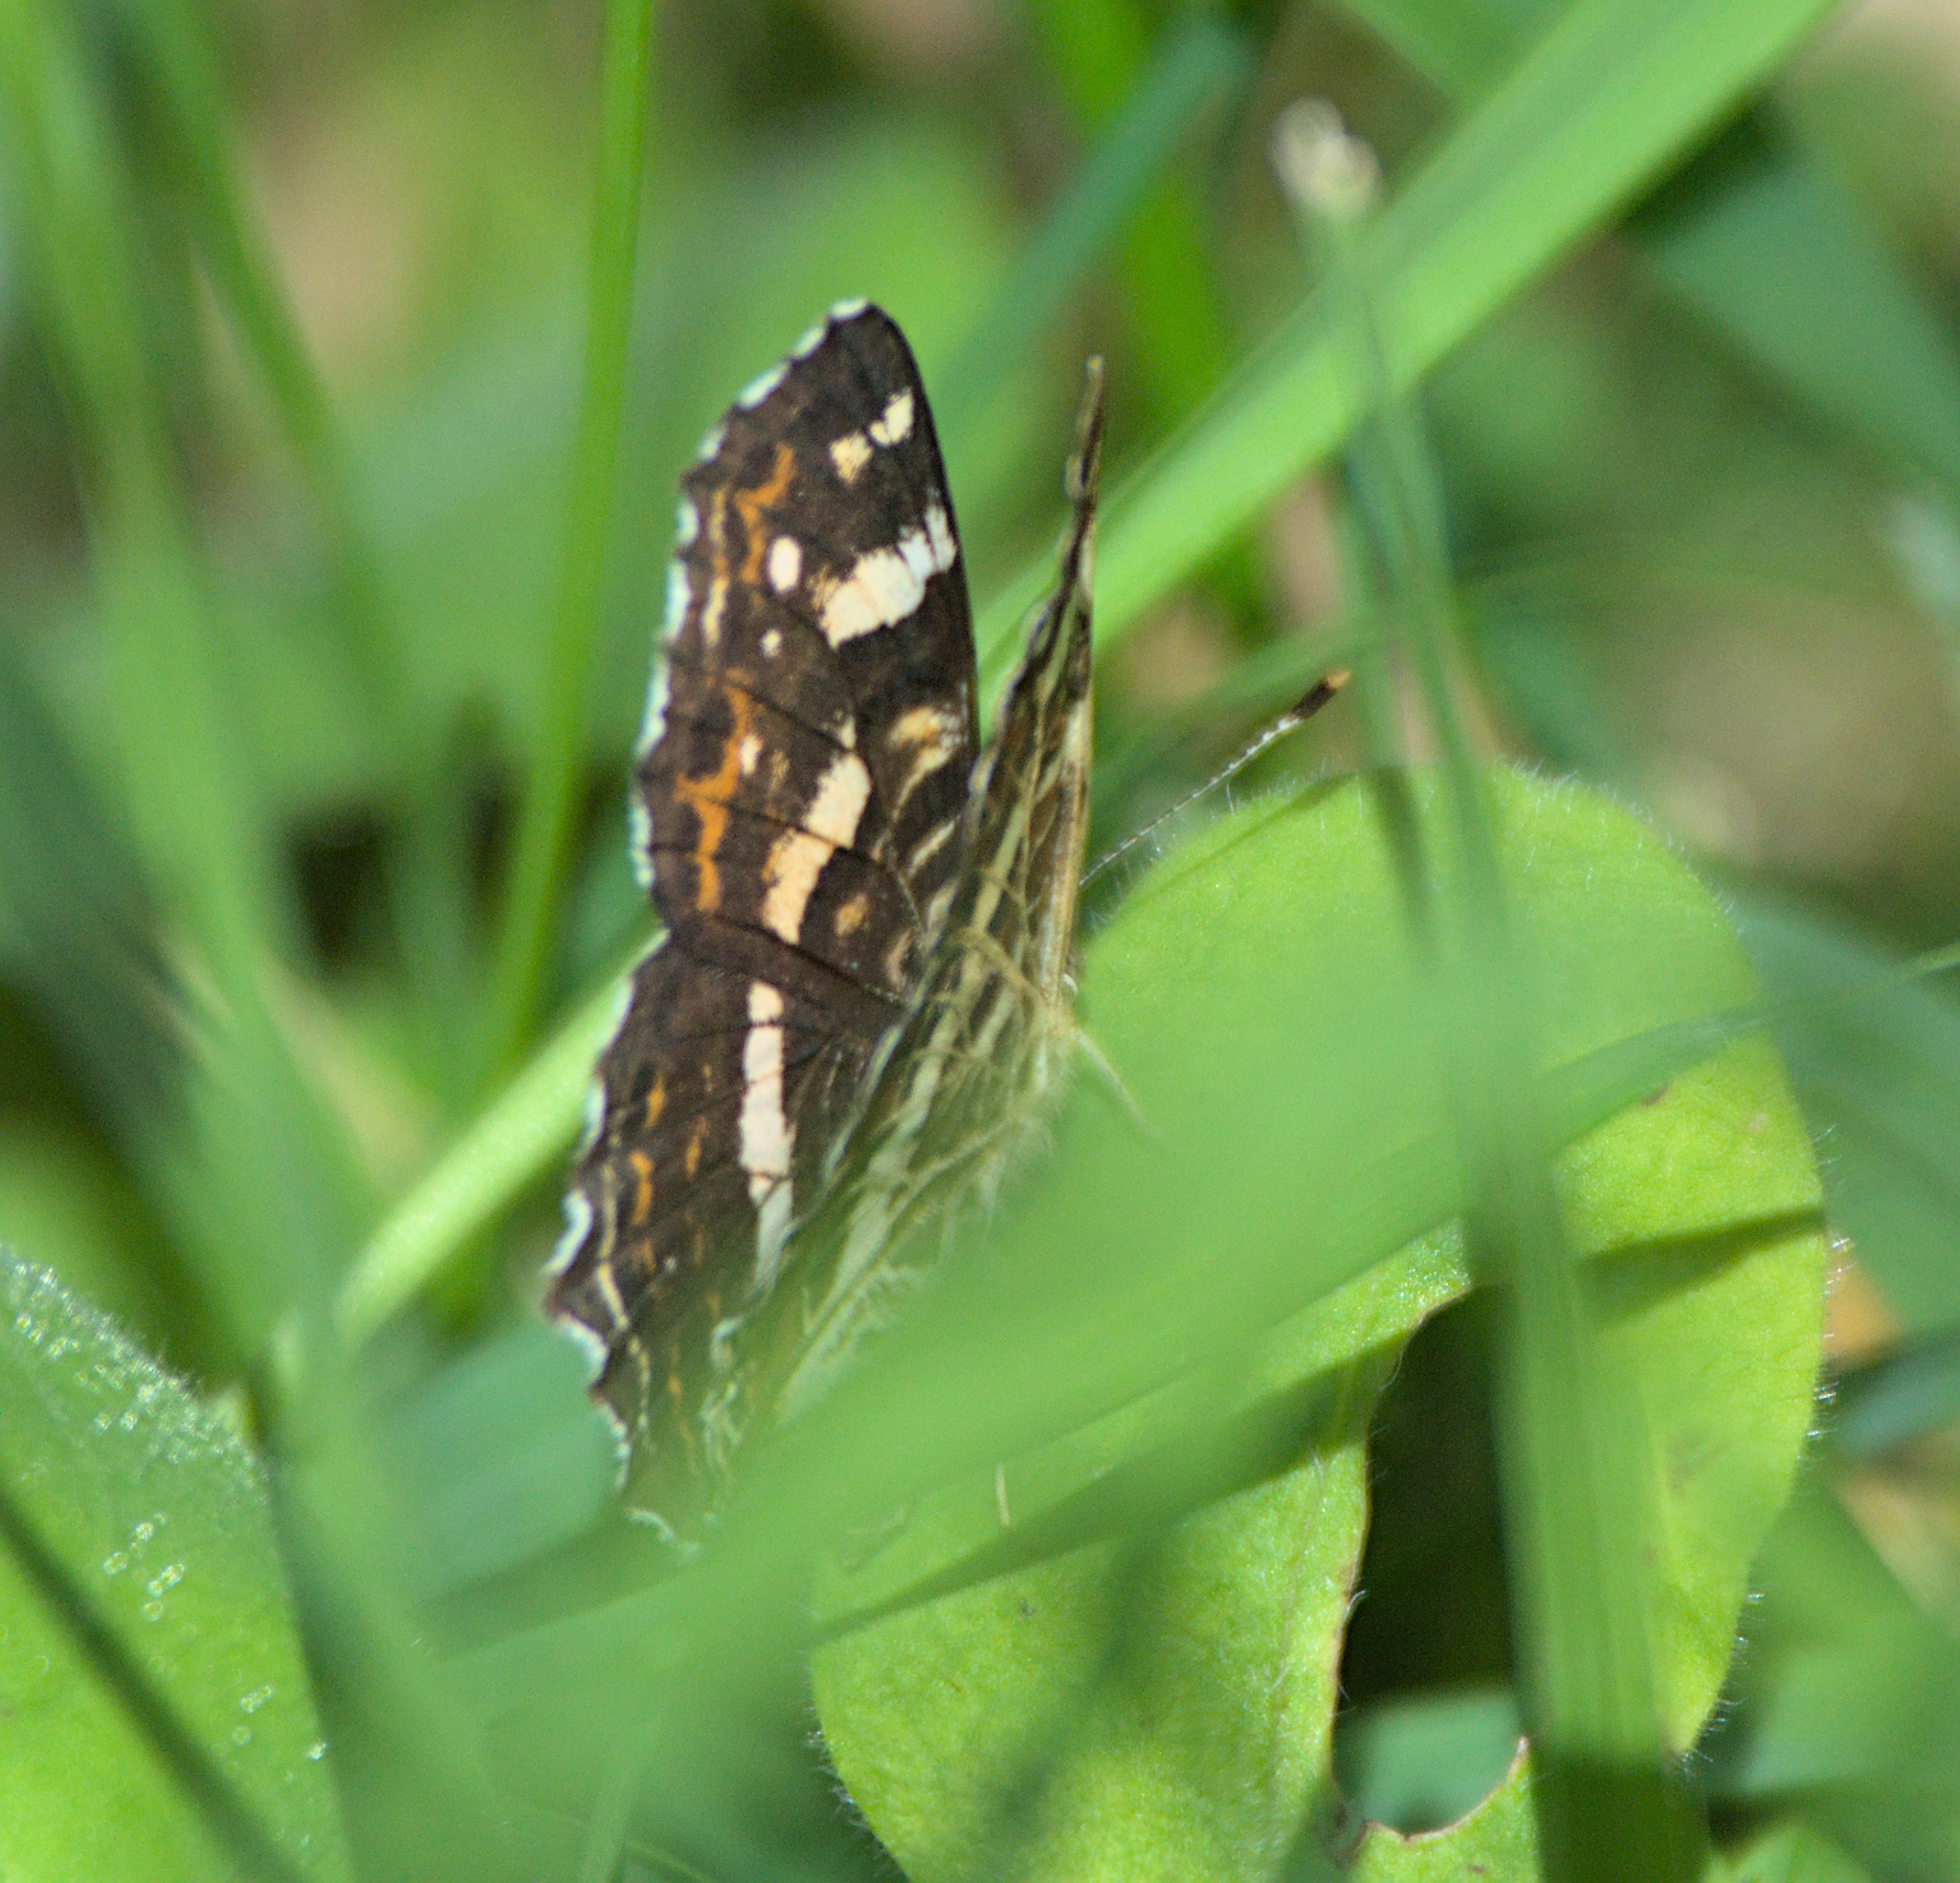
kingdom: Animalia
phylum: Arthropoda
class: Insecta
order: Lepidoptera
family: Nymphalidae
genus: Araschnia
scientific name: Araschnia levana
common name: Map butterfly
